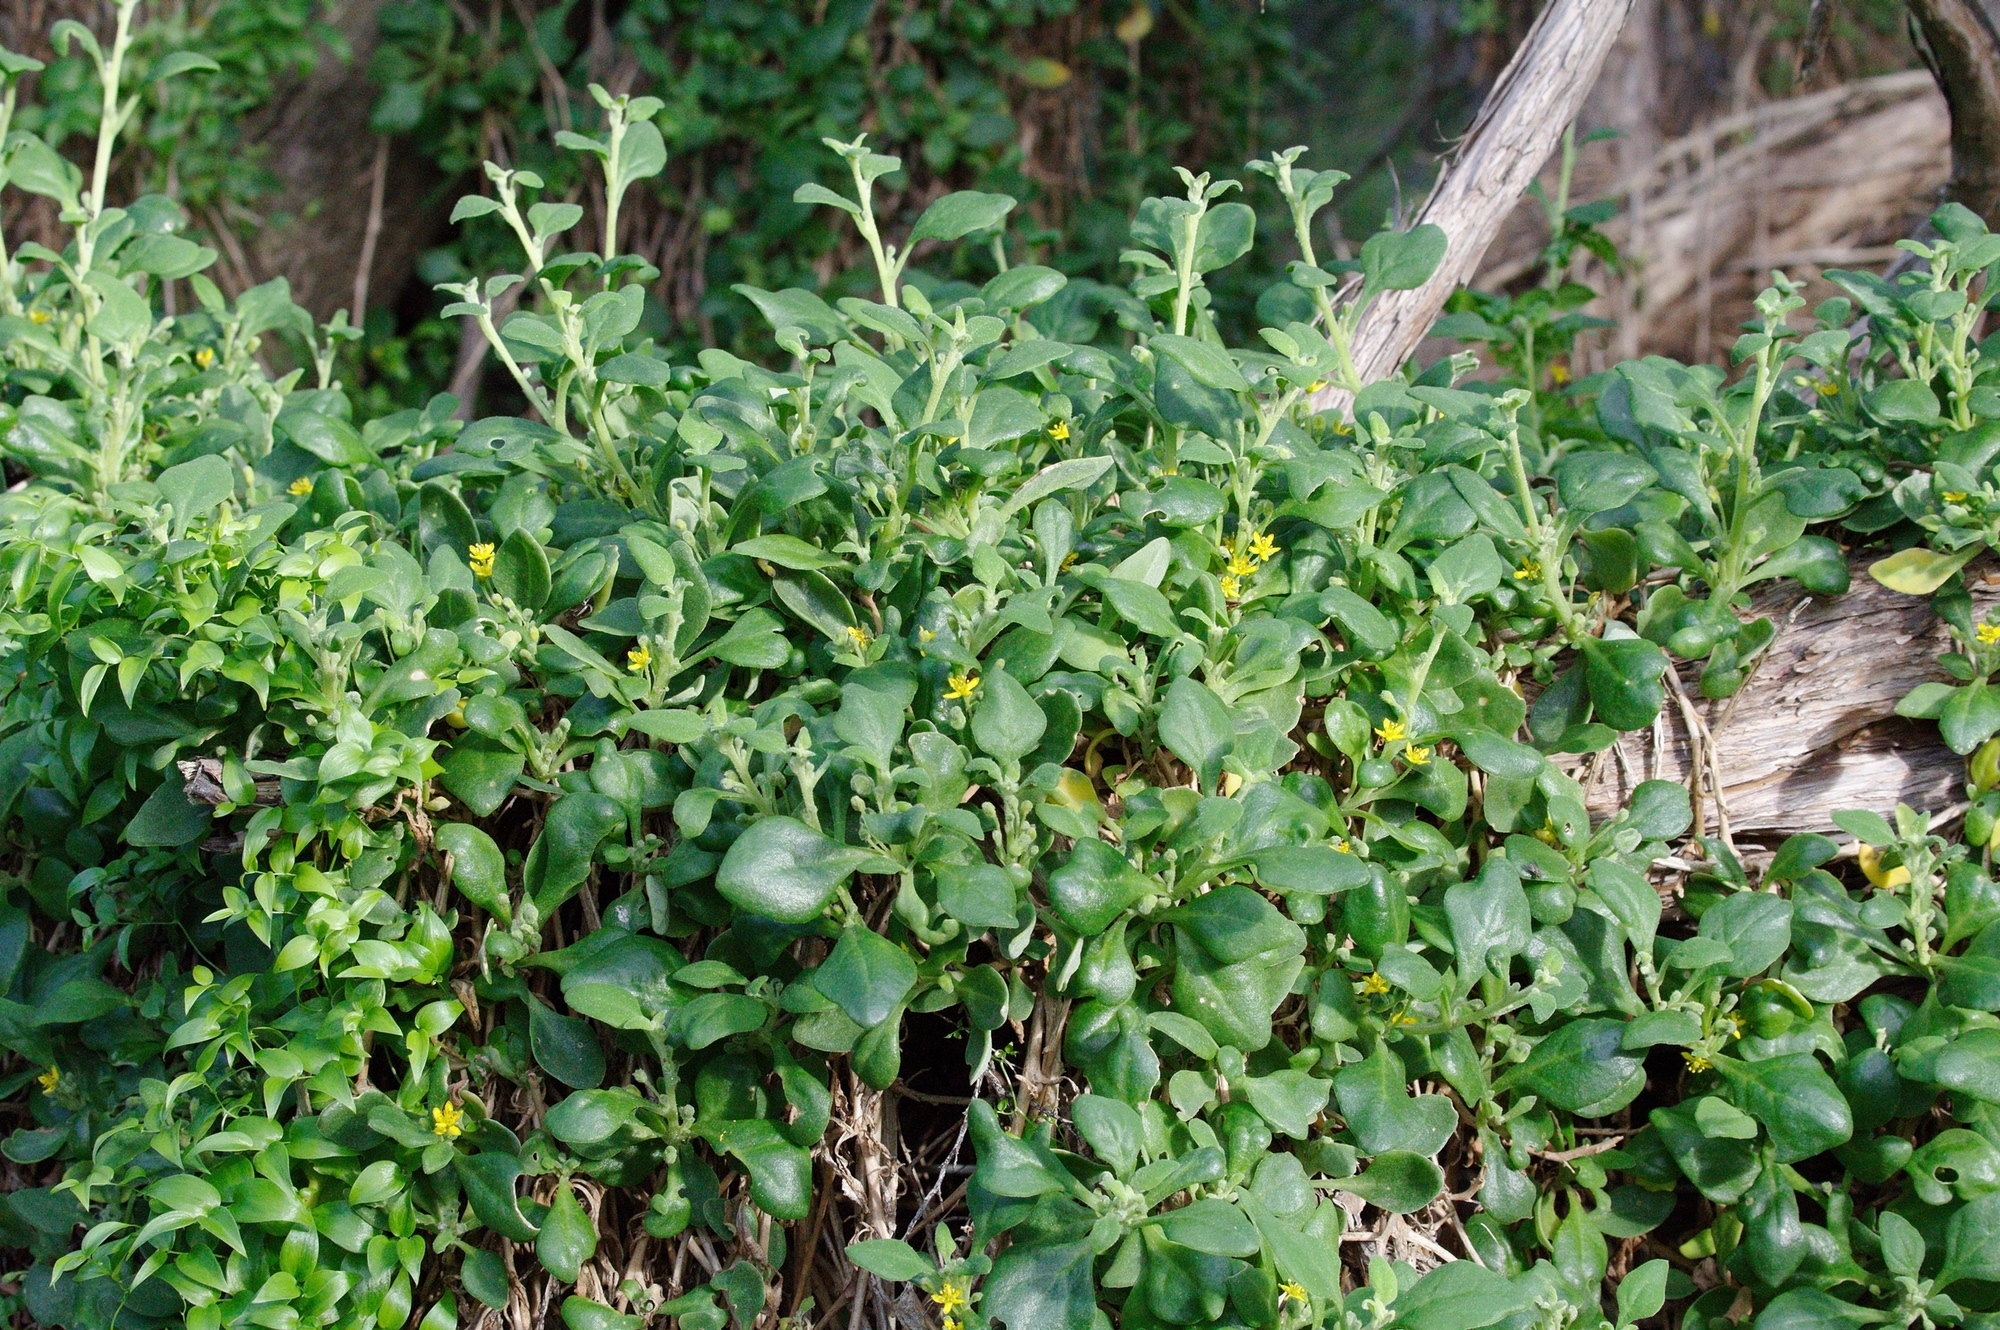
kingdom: Plantae
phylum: Tracheophyta
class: Magnoliopsida
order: Caryophyllales
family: Aizoaceae
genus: Tetragonia
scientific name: Tetragonia implexicoma
